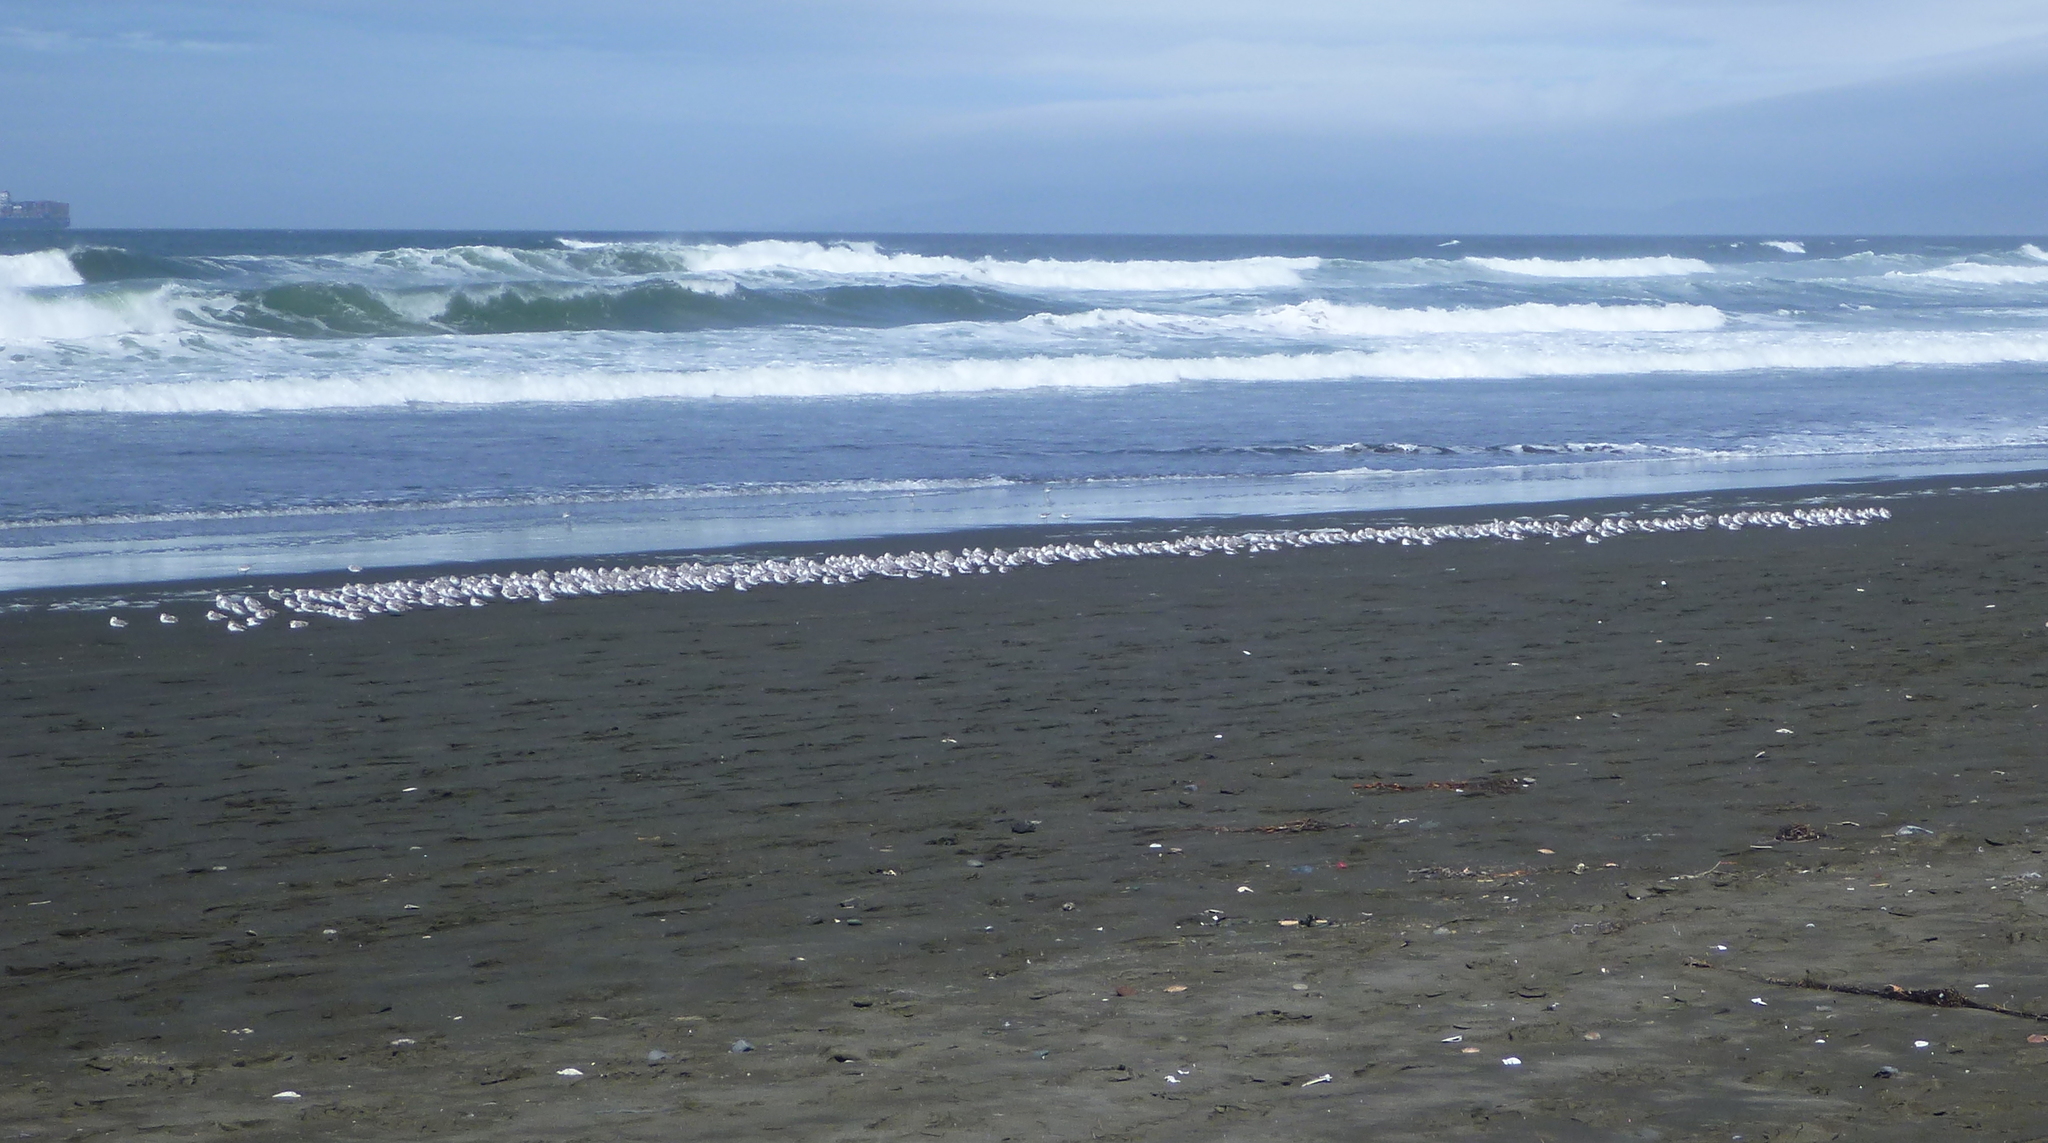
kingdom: Animalia
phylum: Chordata
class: Aves
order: Charadriiformes
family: Scolopacidae
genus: Calidris
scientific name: Calidris alba
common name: Sanderling
